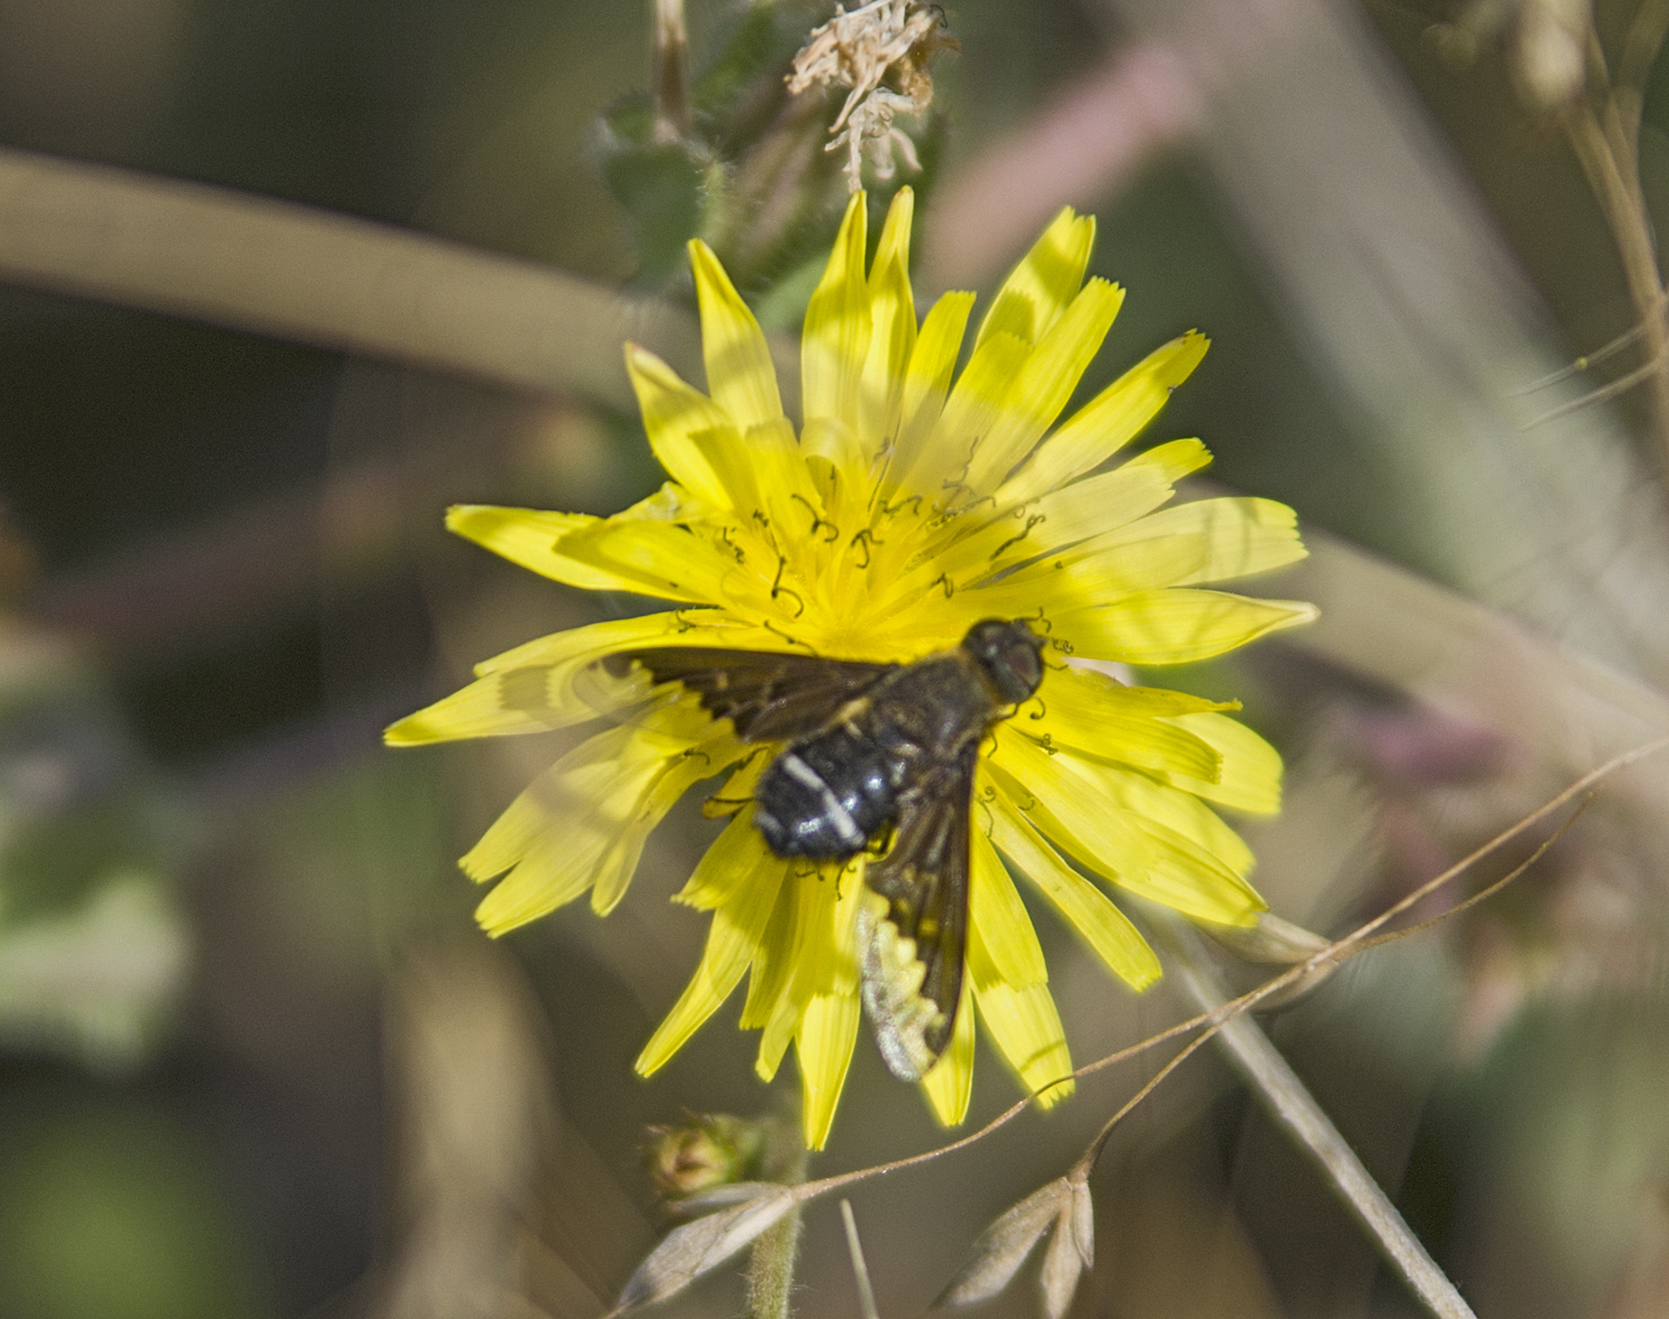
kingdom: Animalia
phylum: Arthropoda
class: Insecta
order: Diptera
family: Bombyliidae
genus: Hemipenthes
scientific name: Hemipenthes velutina
